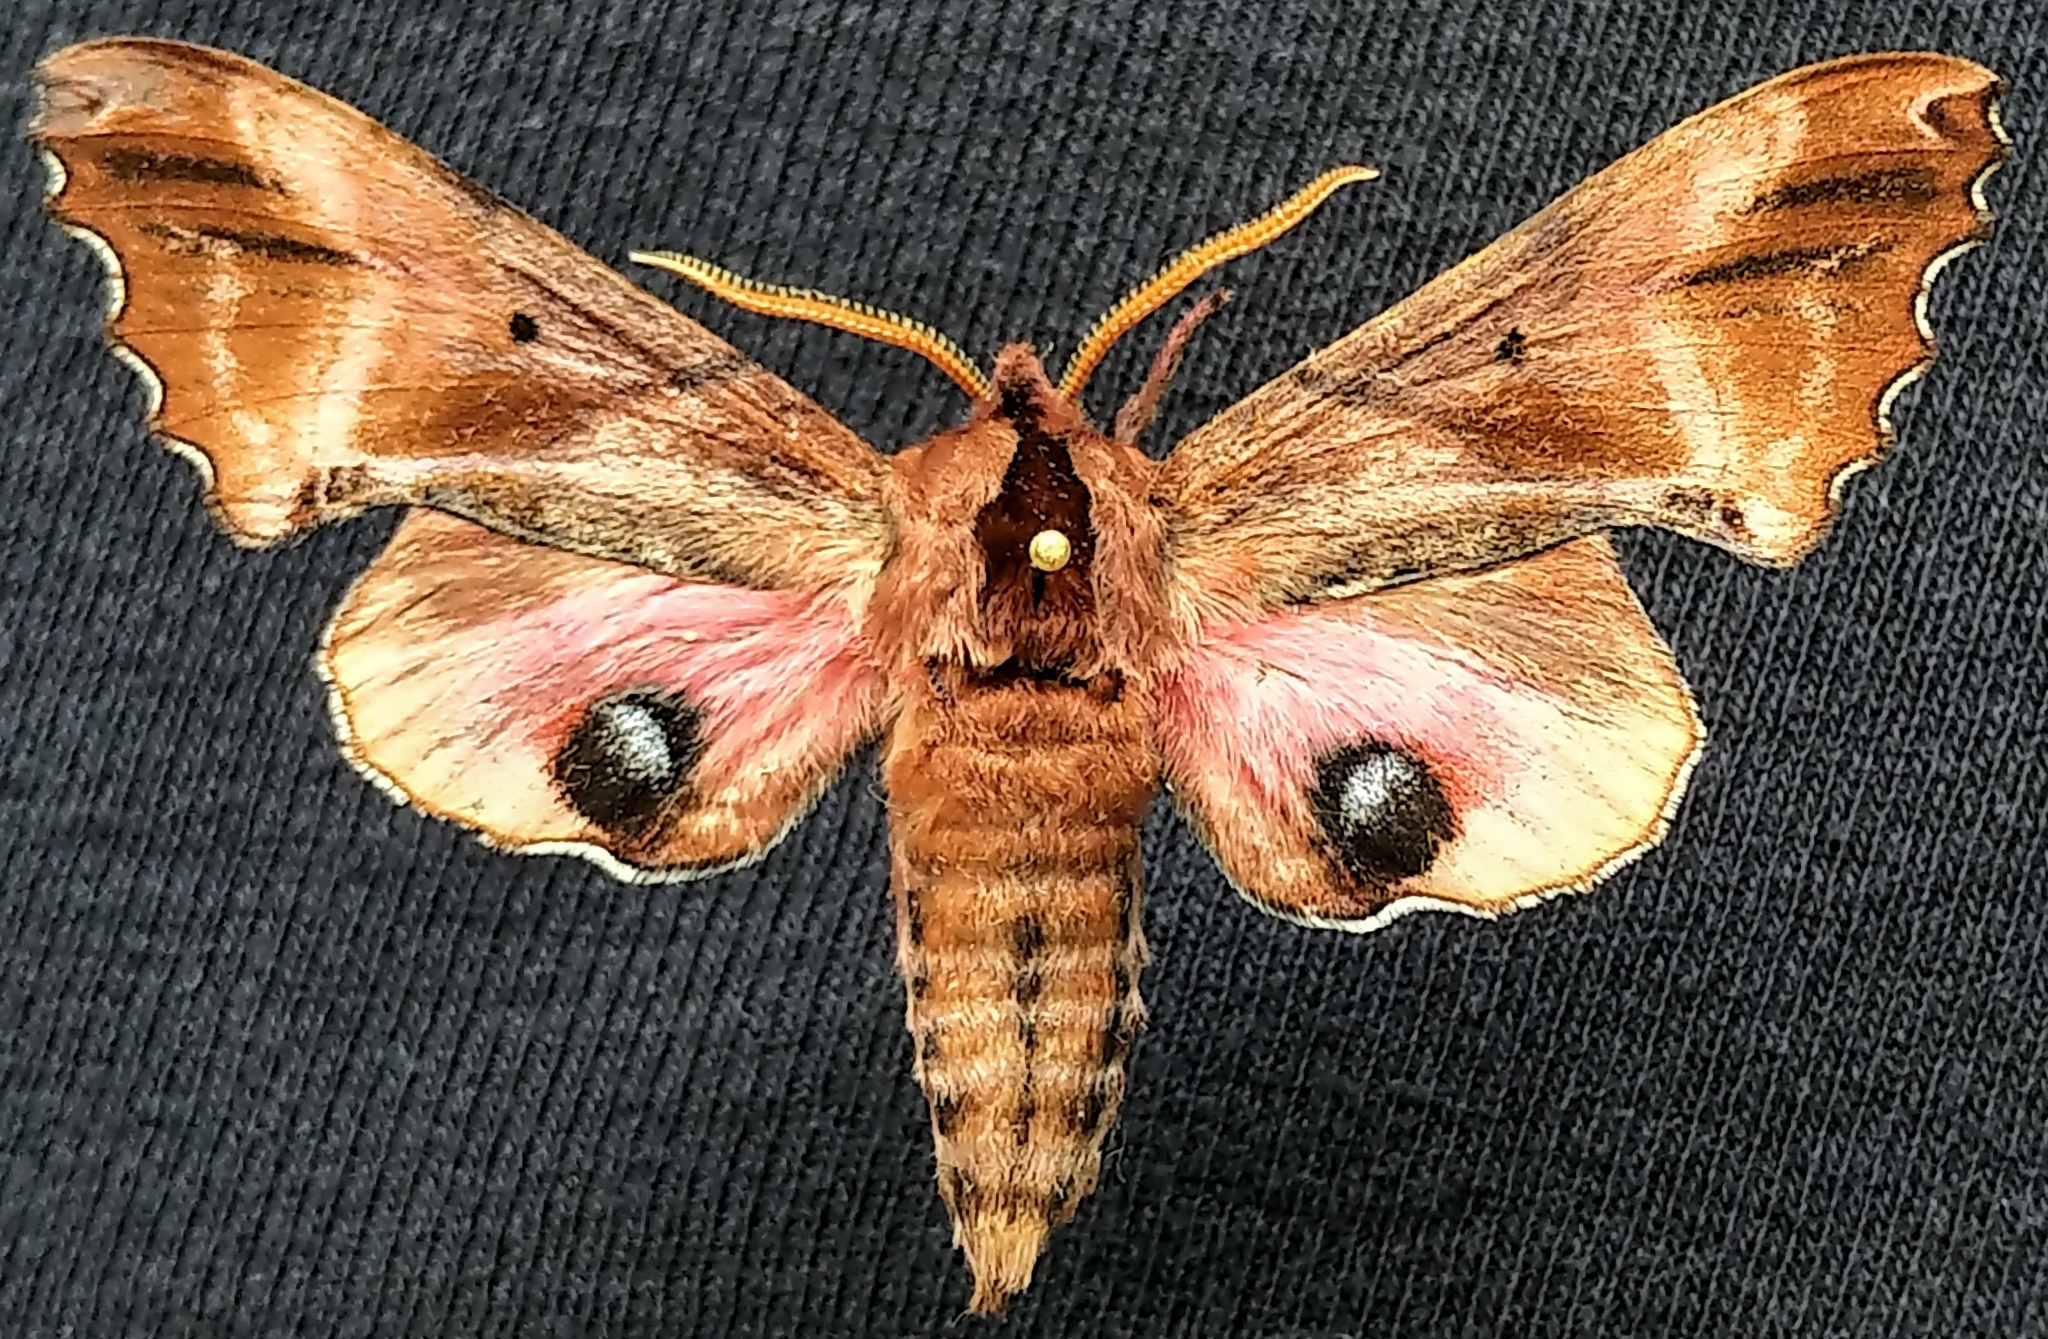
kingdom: Animalia
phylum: Arthropoda
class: Insecta
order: Lepidoptera
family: Sphingidae
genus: Paonias
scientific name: Paonias excaecata
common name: Blind-eyed sphinx
